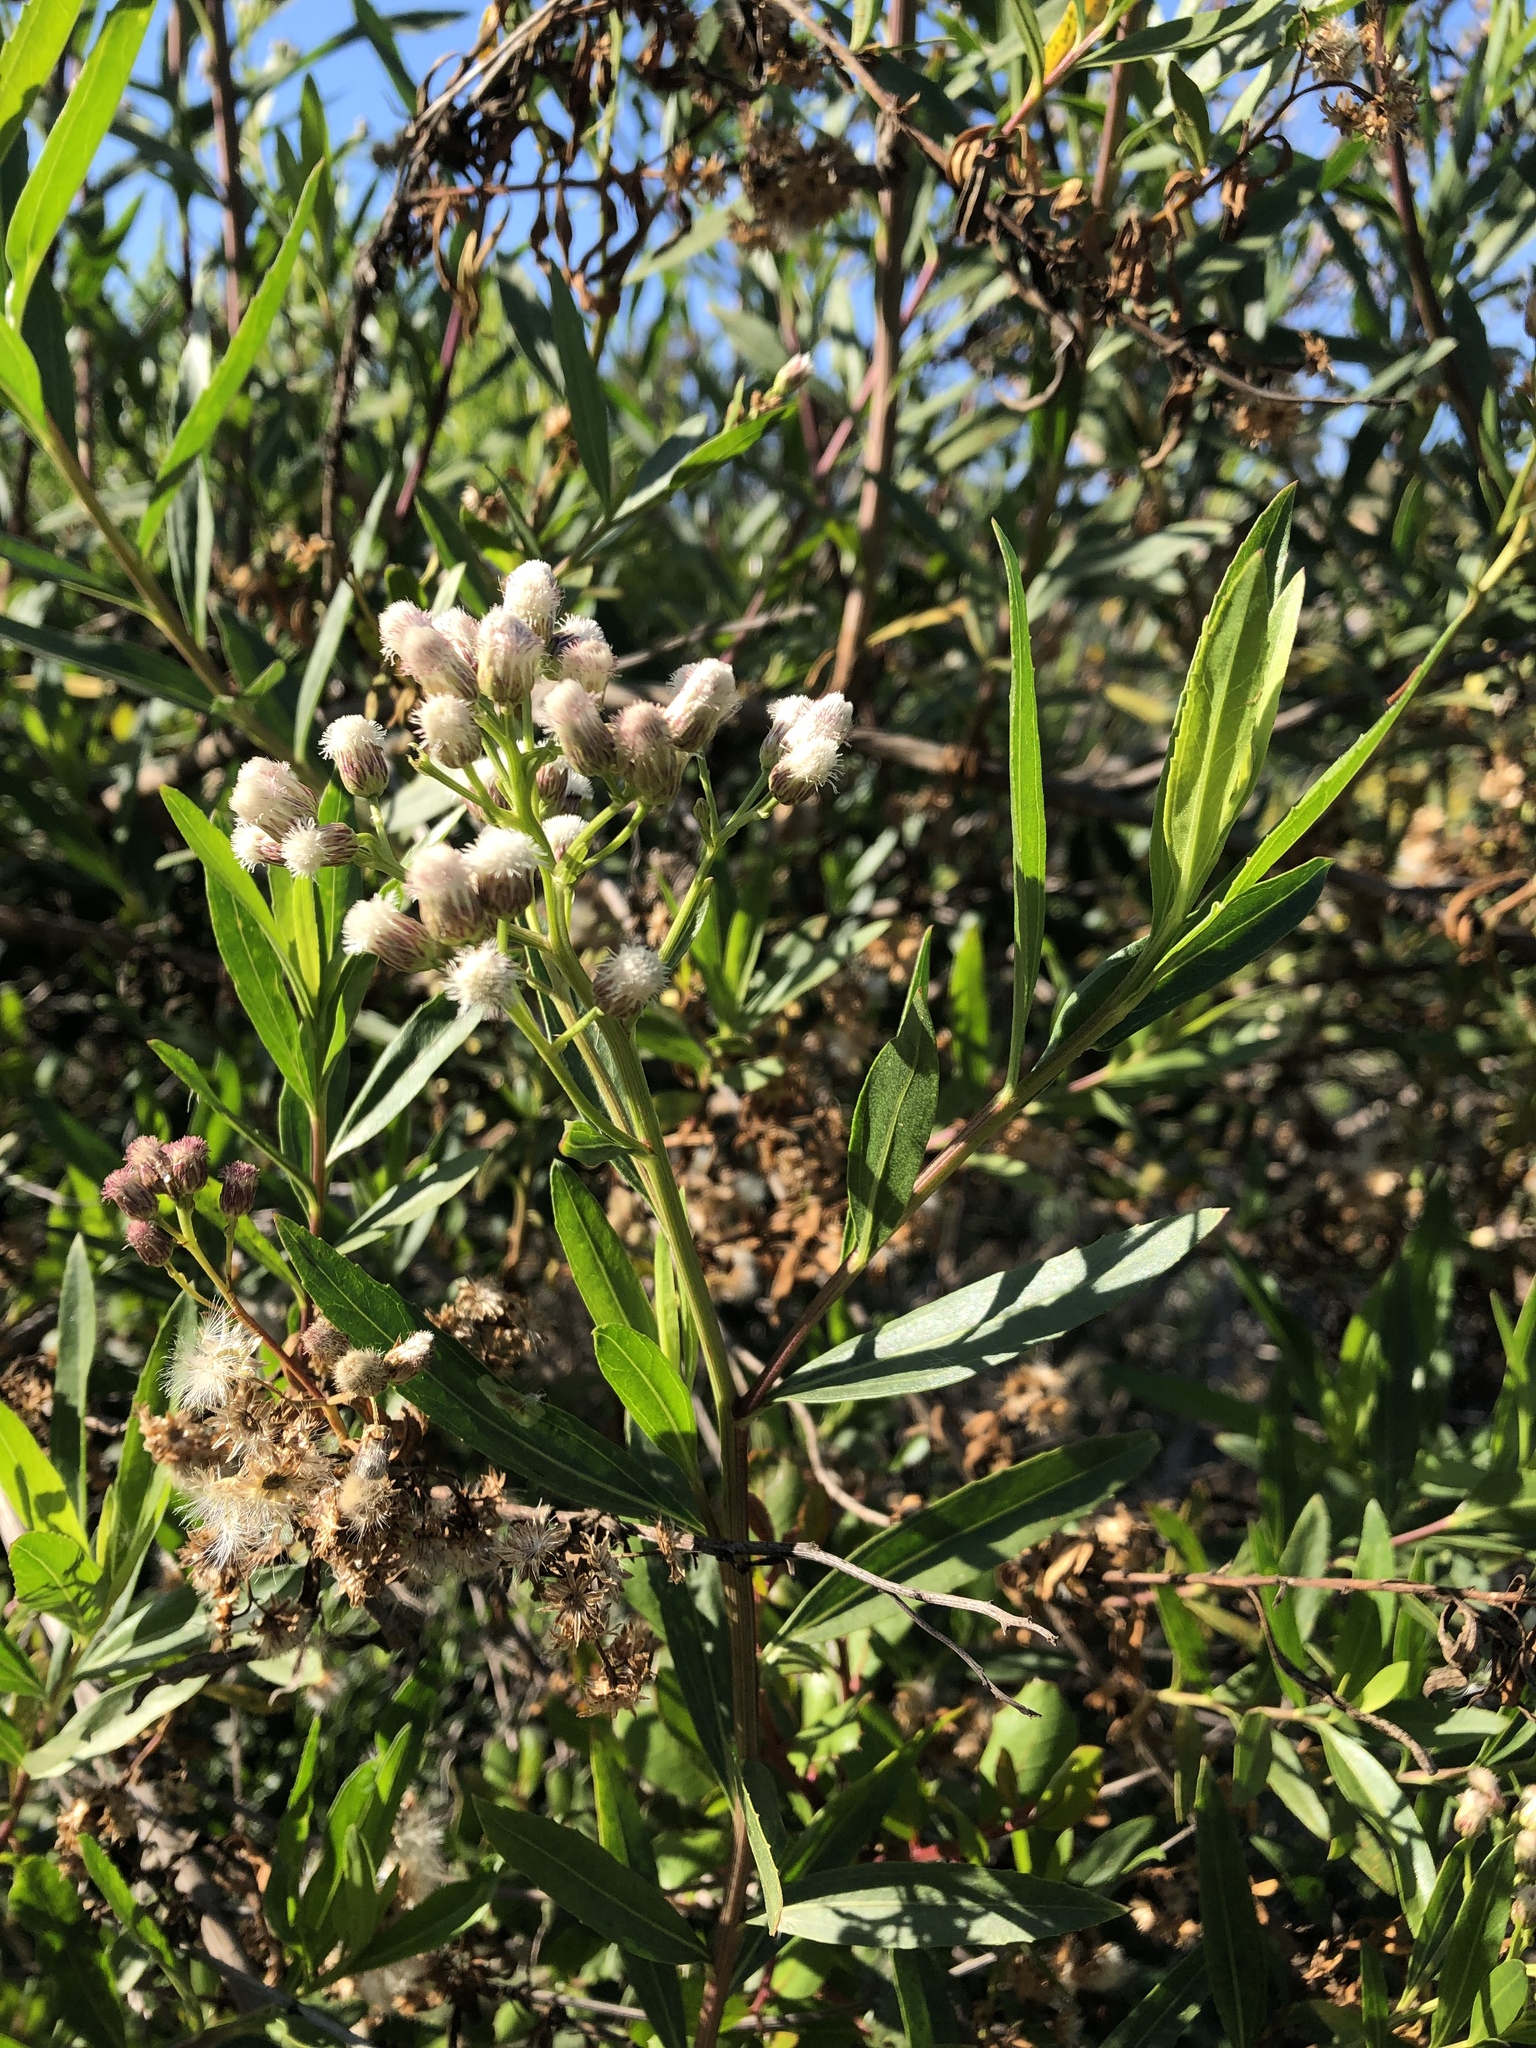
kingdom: Plantae
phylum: Tracheophyta
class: Magnoliopsida
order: Asterales
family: Asteraceae
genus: Baccharis
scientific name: Baccharis salicifolia
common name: Sticky baccharis
